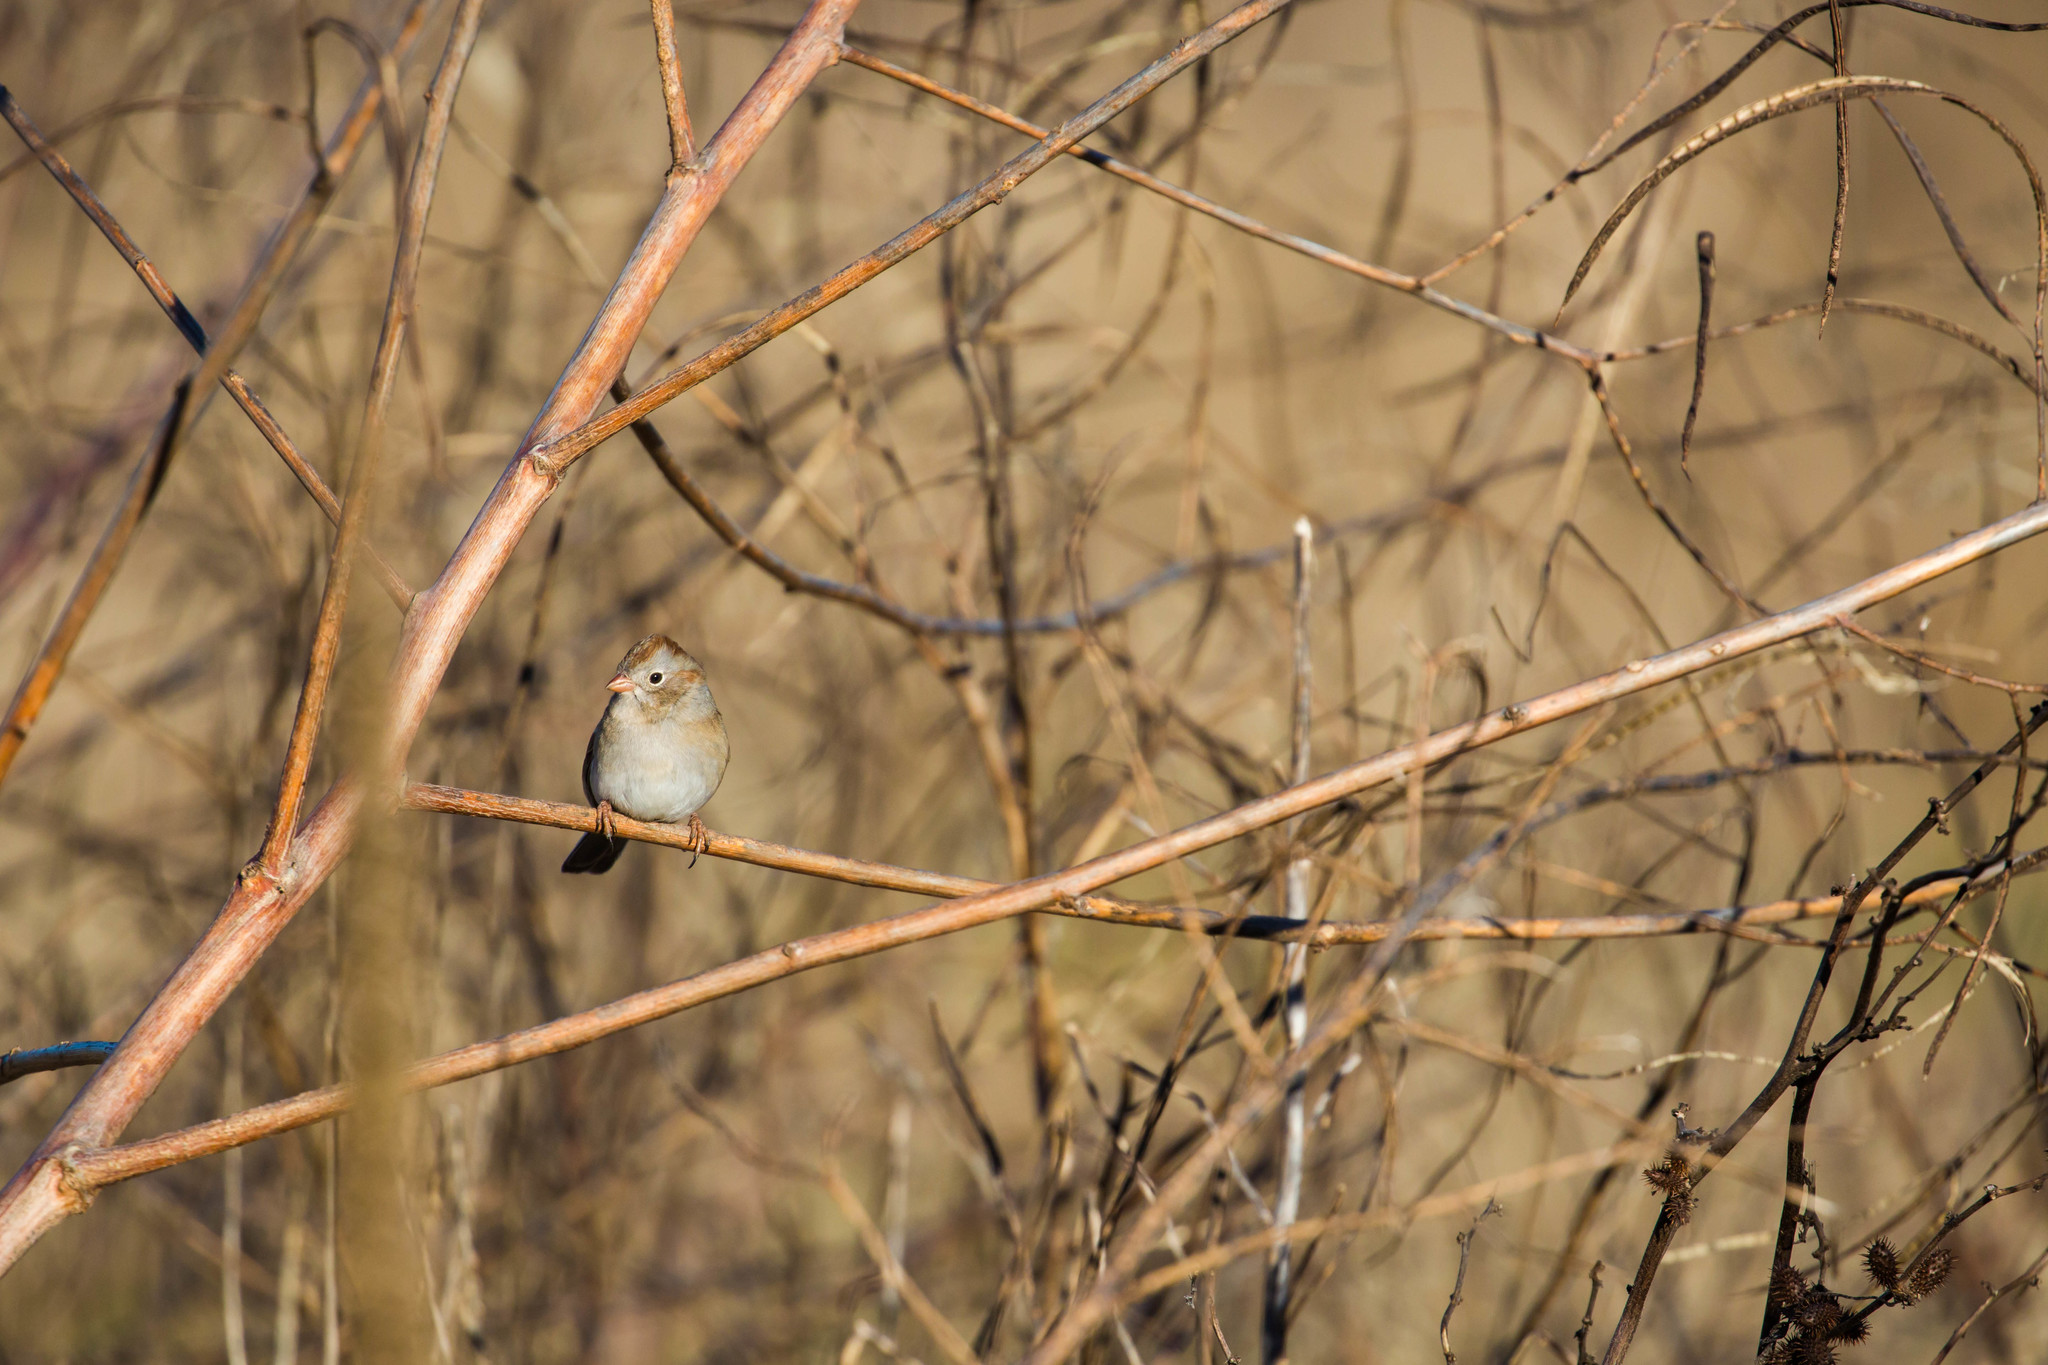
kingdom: Animalia
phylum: Chordata
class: Aves
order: Passeriformes
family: Passerellidae
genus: Spizella
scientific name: Spizella pusilla
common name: Field sparrow
